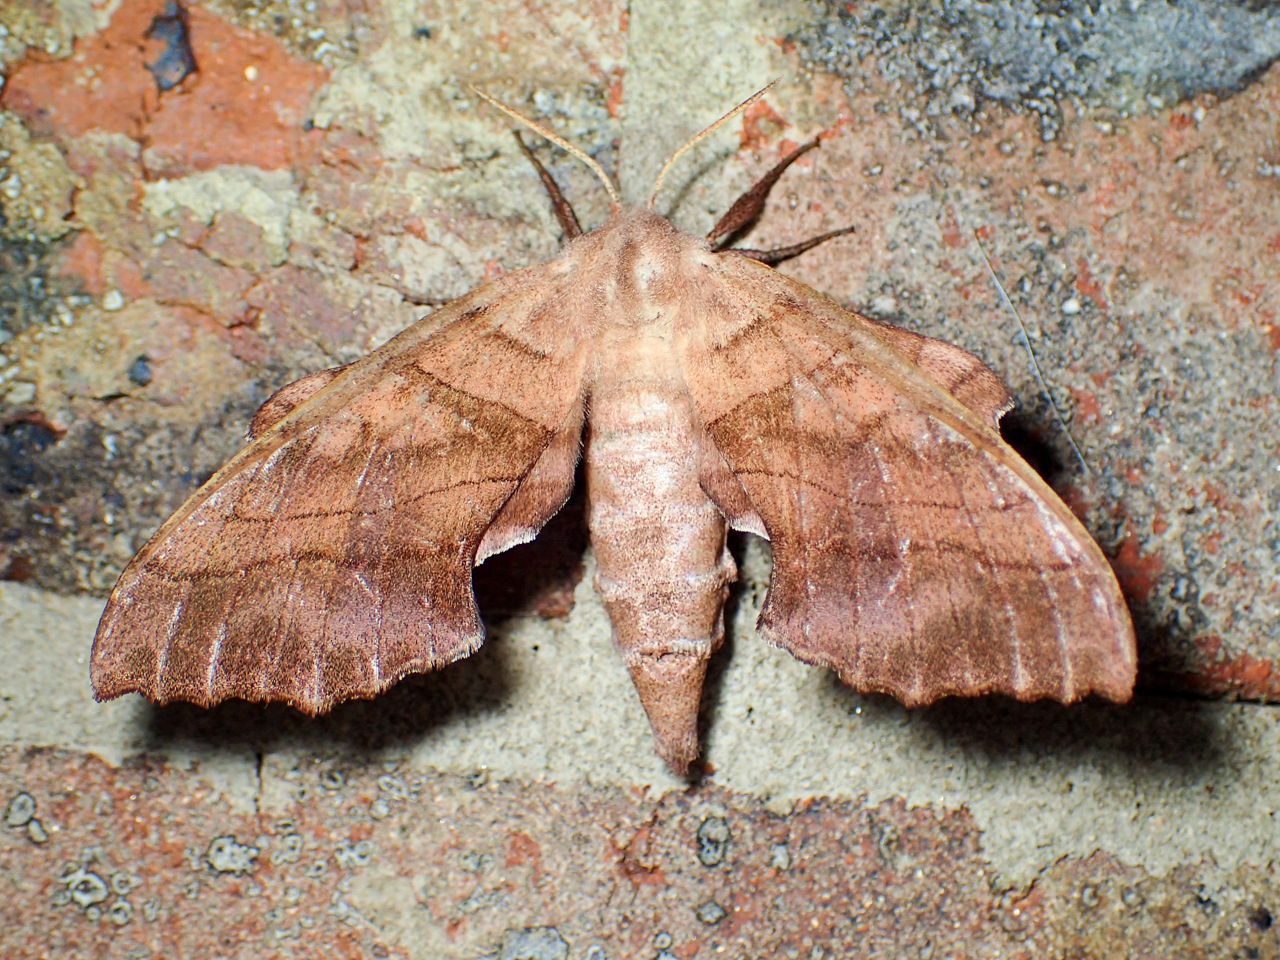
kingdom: Animalia
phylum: Arthropoda
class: Insecta
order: Lepidoptera
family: Sphingidae
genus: Amorpha
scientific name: Amorpha juglandis
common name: Walnut sphinx
